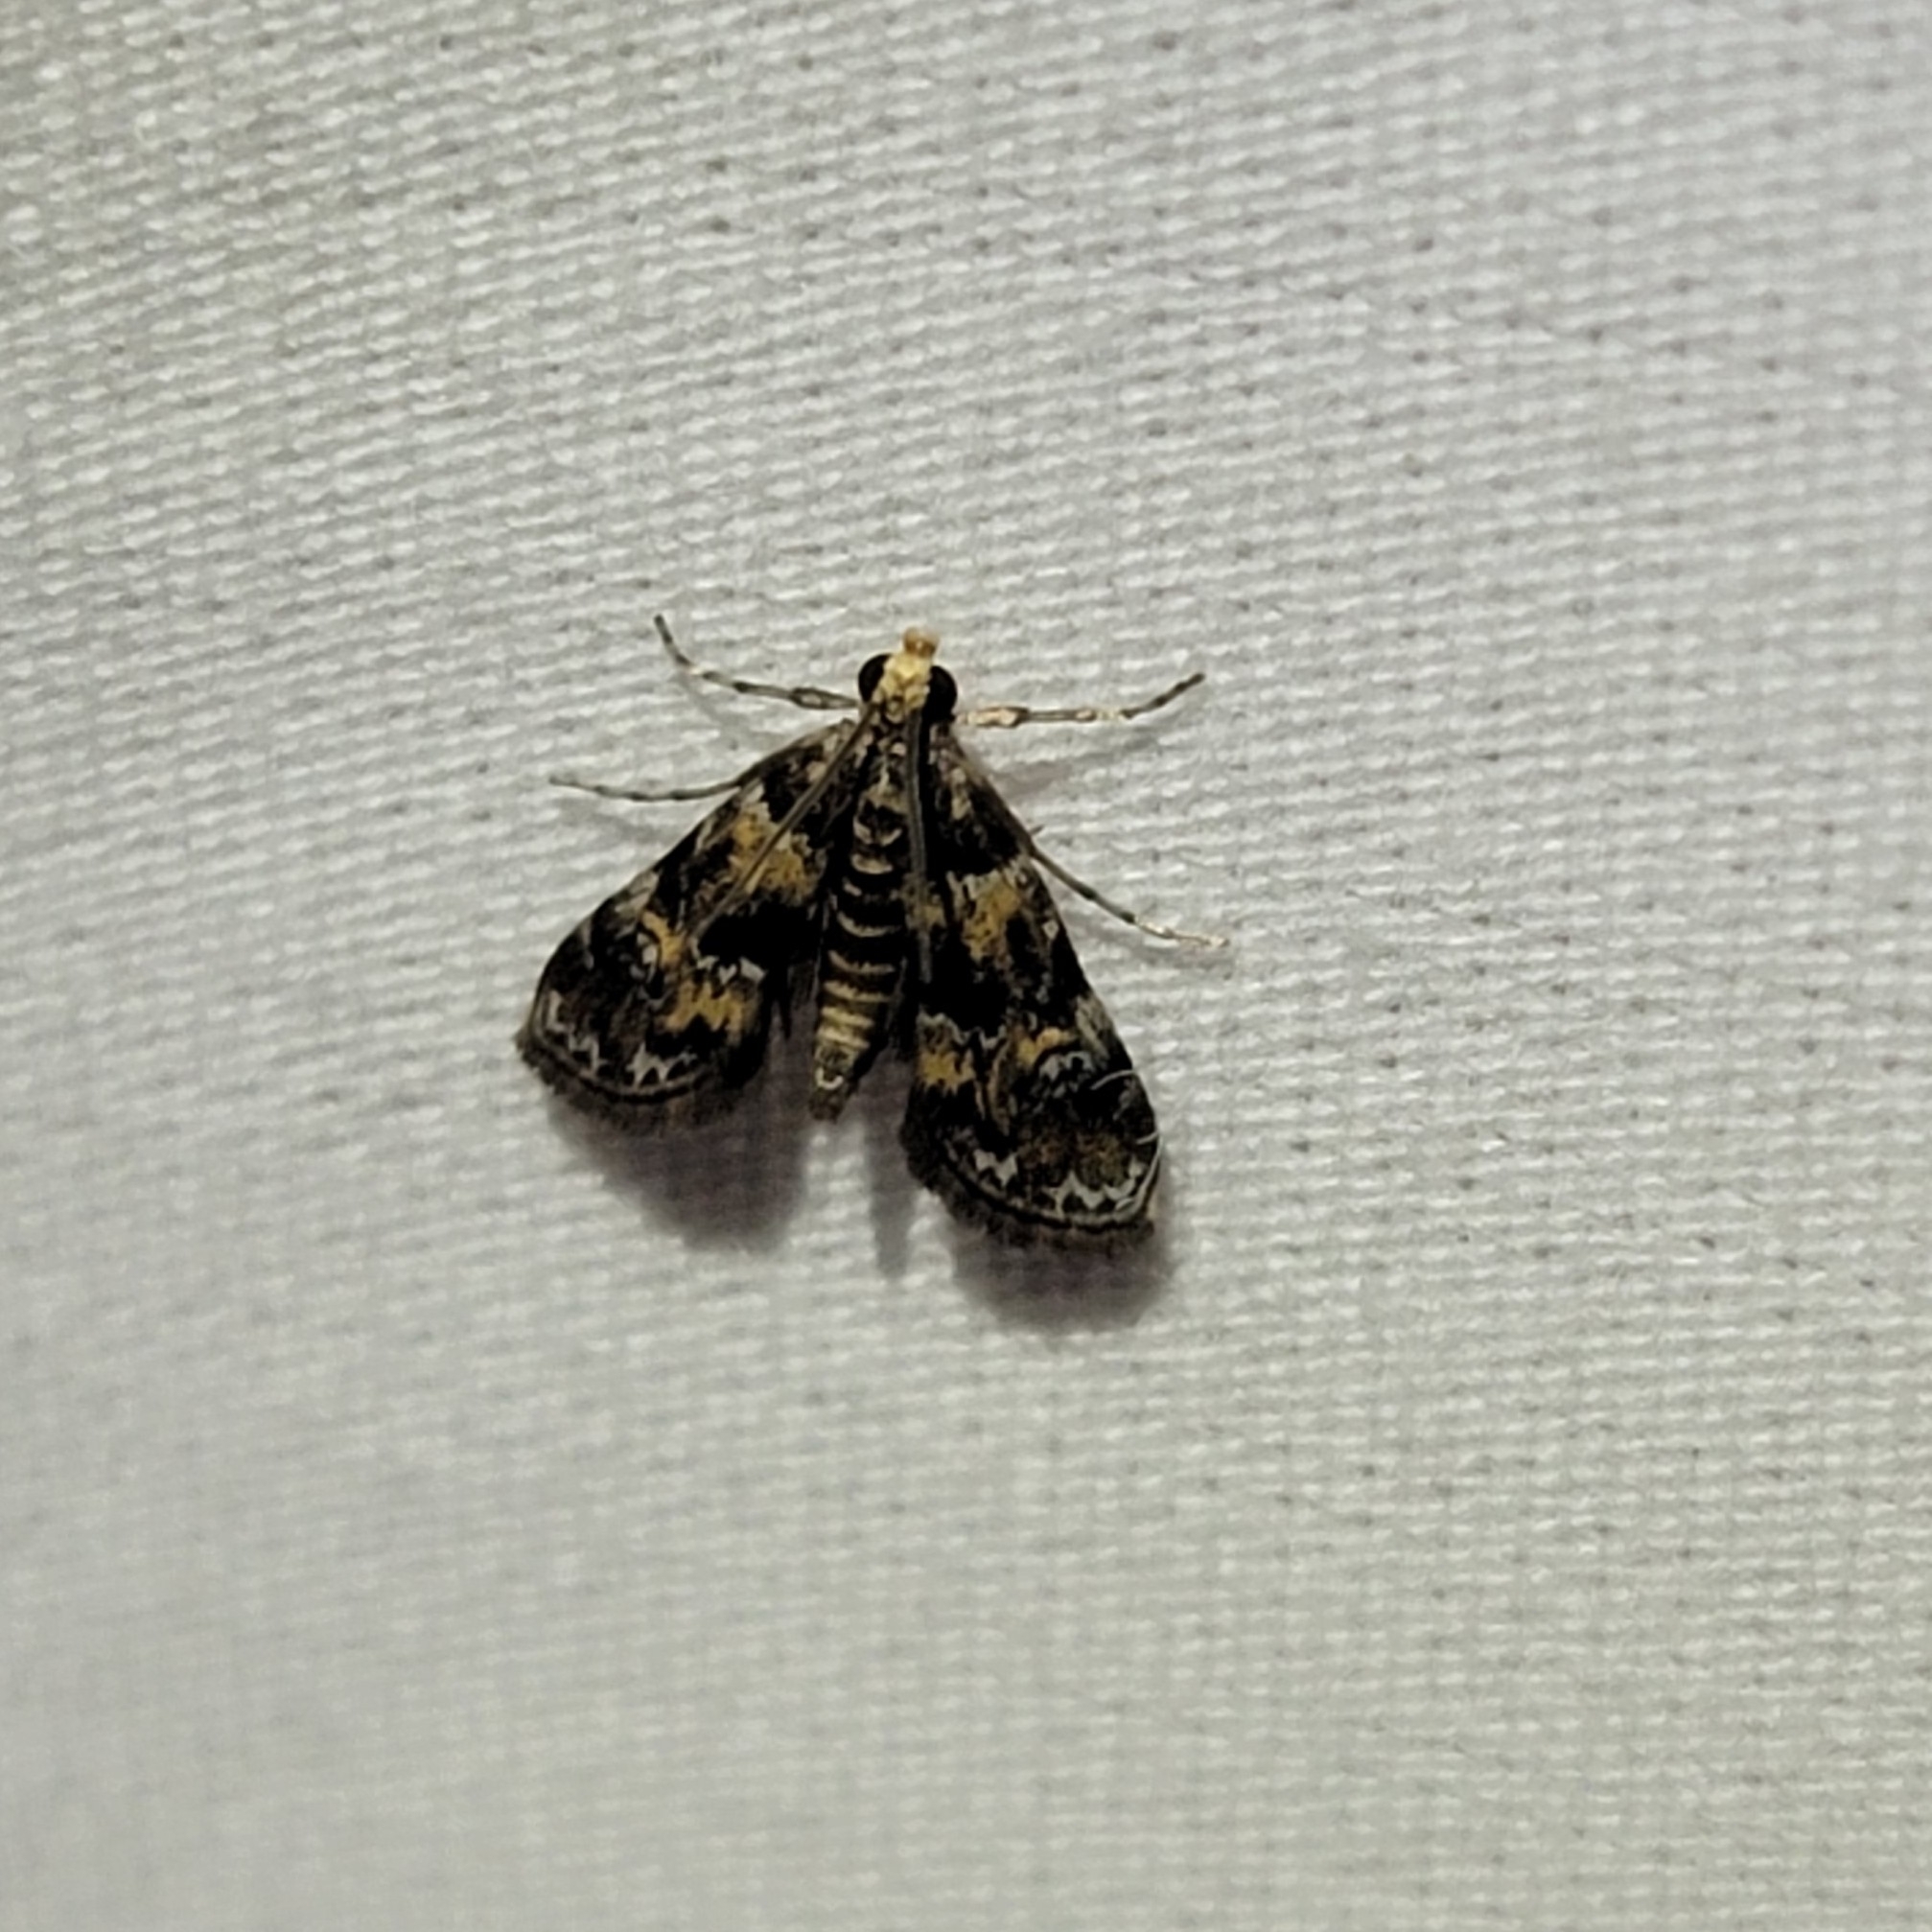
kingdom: Animalia
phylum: Arthropoda
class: Insecta
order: Lepidoptera
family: Crambidae
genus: Elophila
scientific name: Elophila obliteralis
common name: Waterlily leafcutter moth
